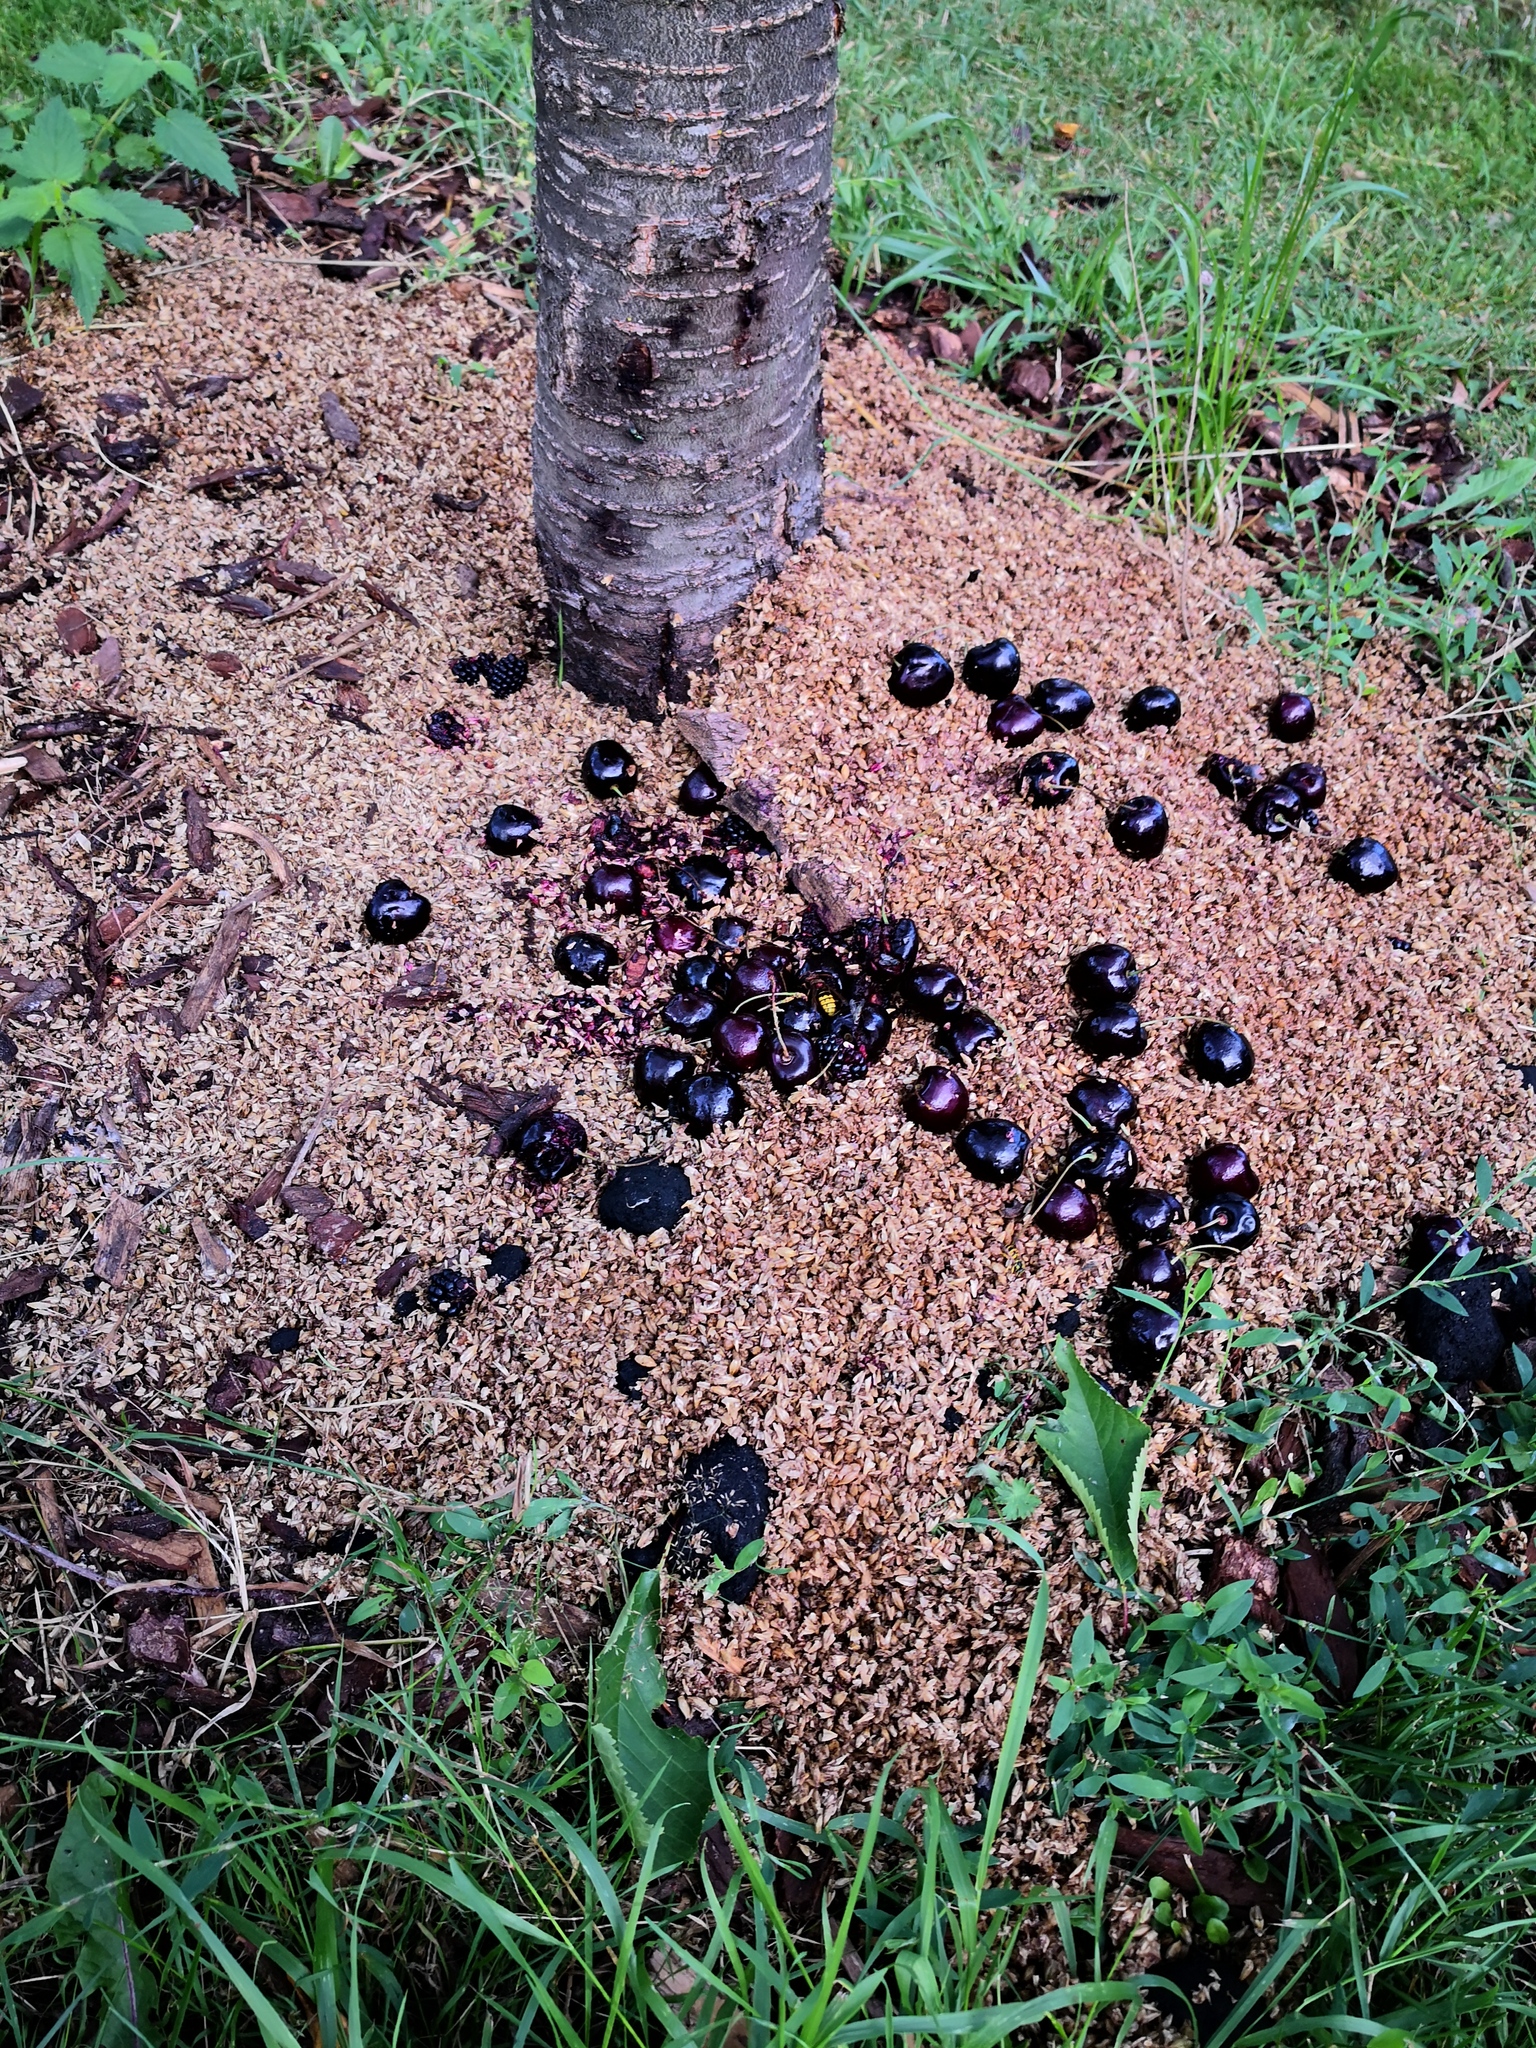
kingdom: Animalia
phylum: Arthropoda
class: Insecta
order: Hymenoptera
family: Vespidae
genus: Vespa
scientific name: Vespa crabro
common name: Hornet
